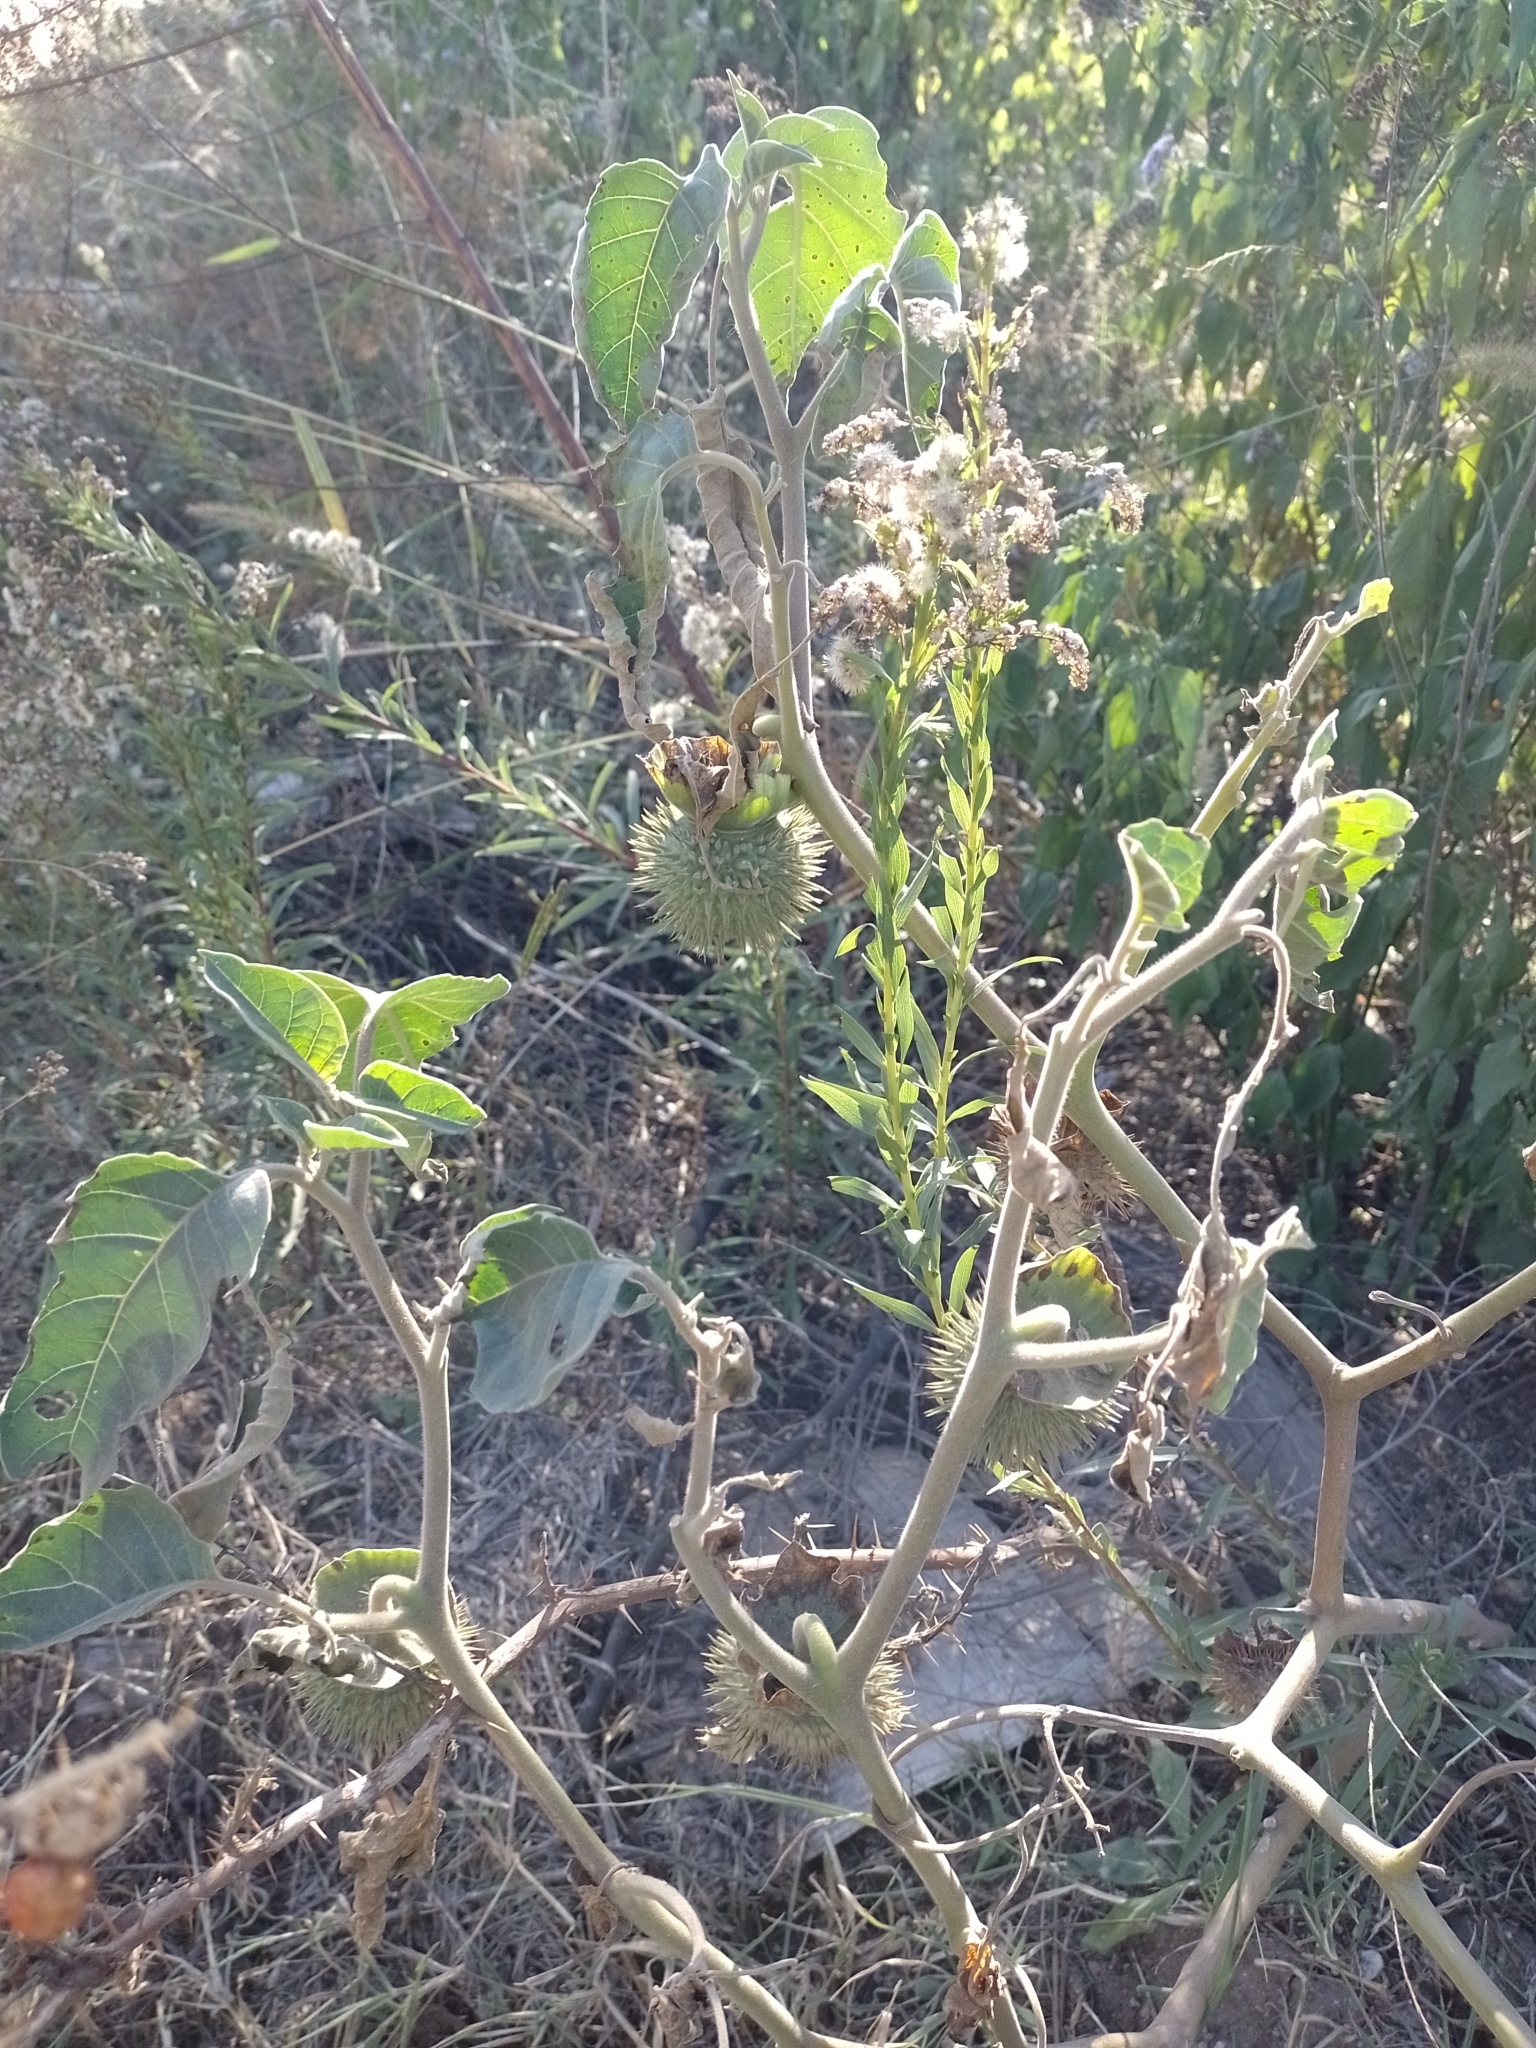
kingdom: Plantae
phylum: Tracheophyta
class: Magnoliopsida
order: Solanales
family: Solanaceae
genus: Datura
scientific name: Datura innoxia
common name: Downy thorn-apple
